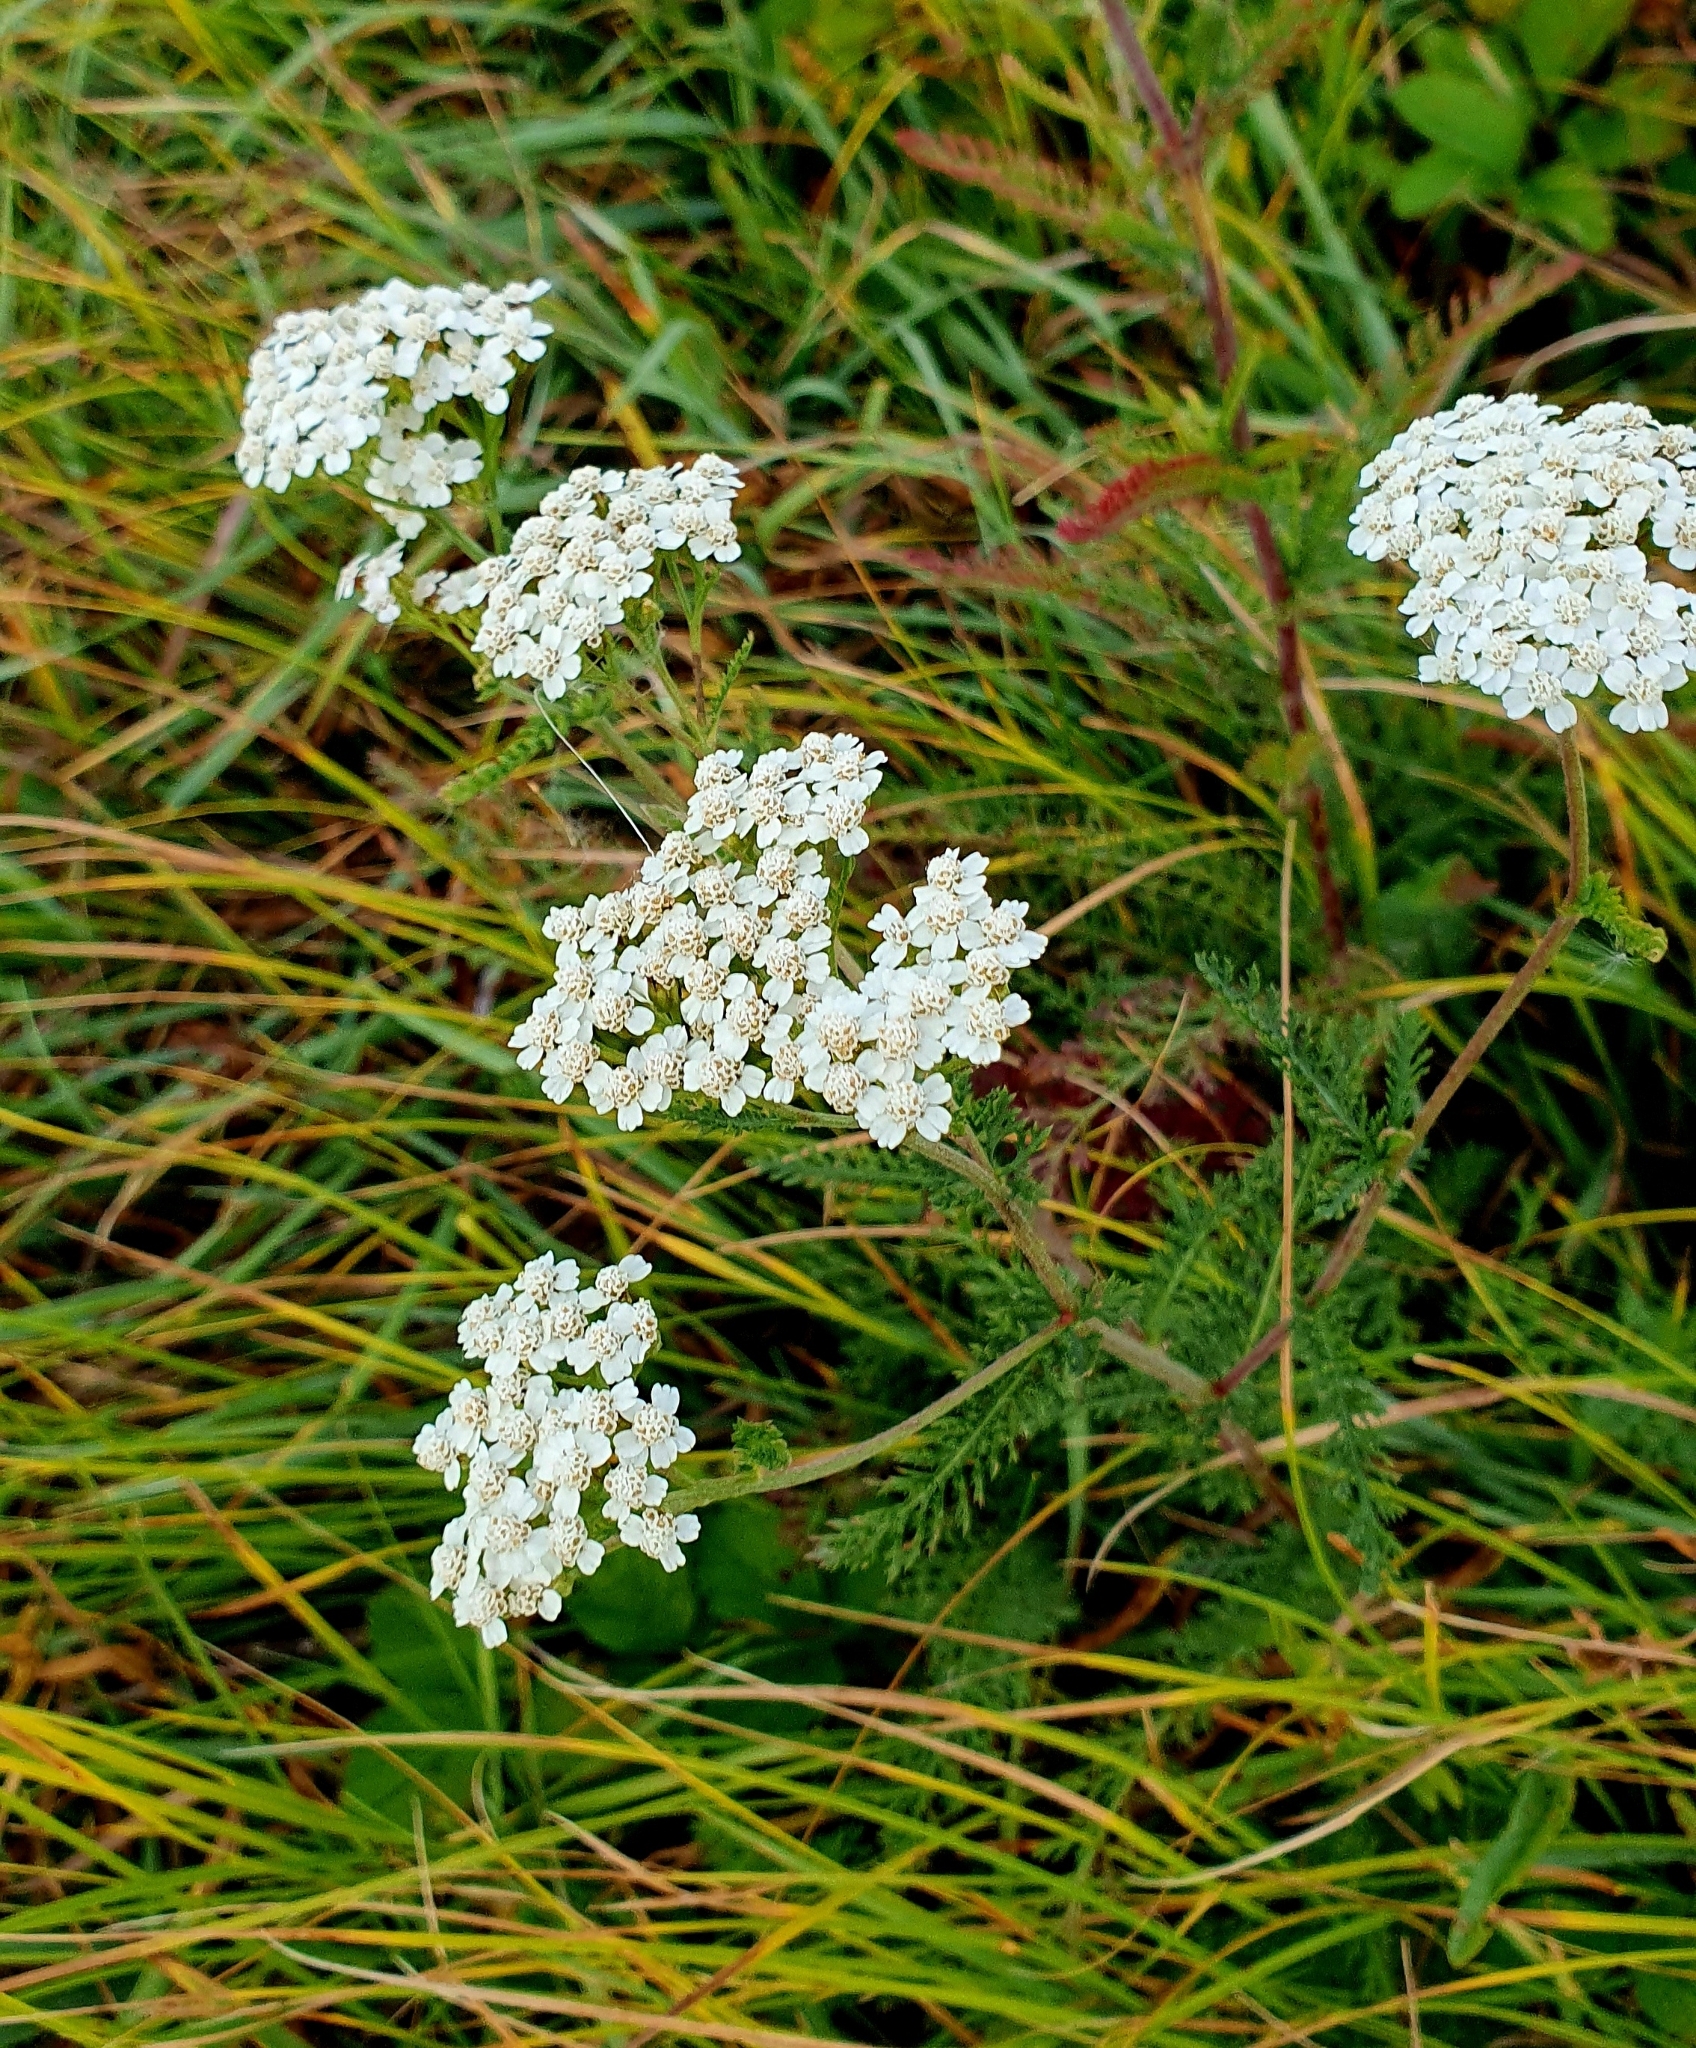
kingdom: Plantae
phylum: Tracheophyta
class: Magnoliopsida
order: Asterales
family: Asteraceae
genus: Achillea
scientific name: Achillea millefolium
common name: Yarrow
